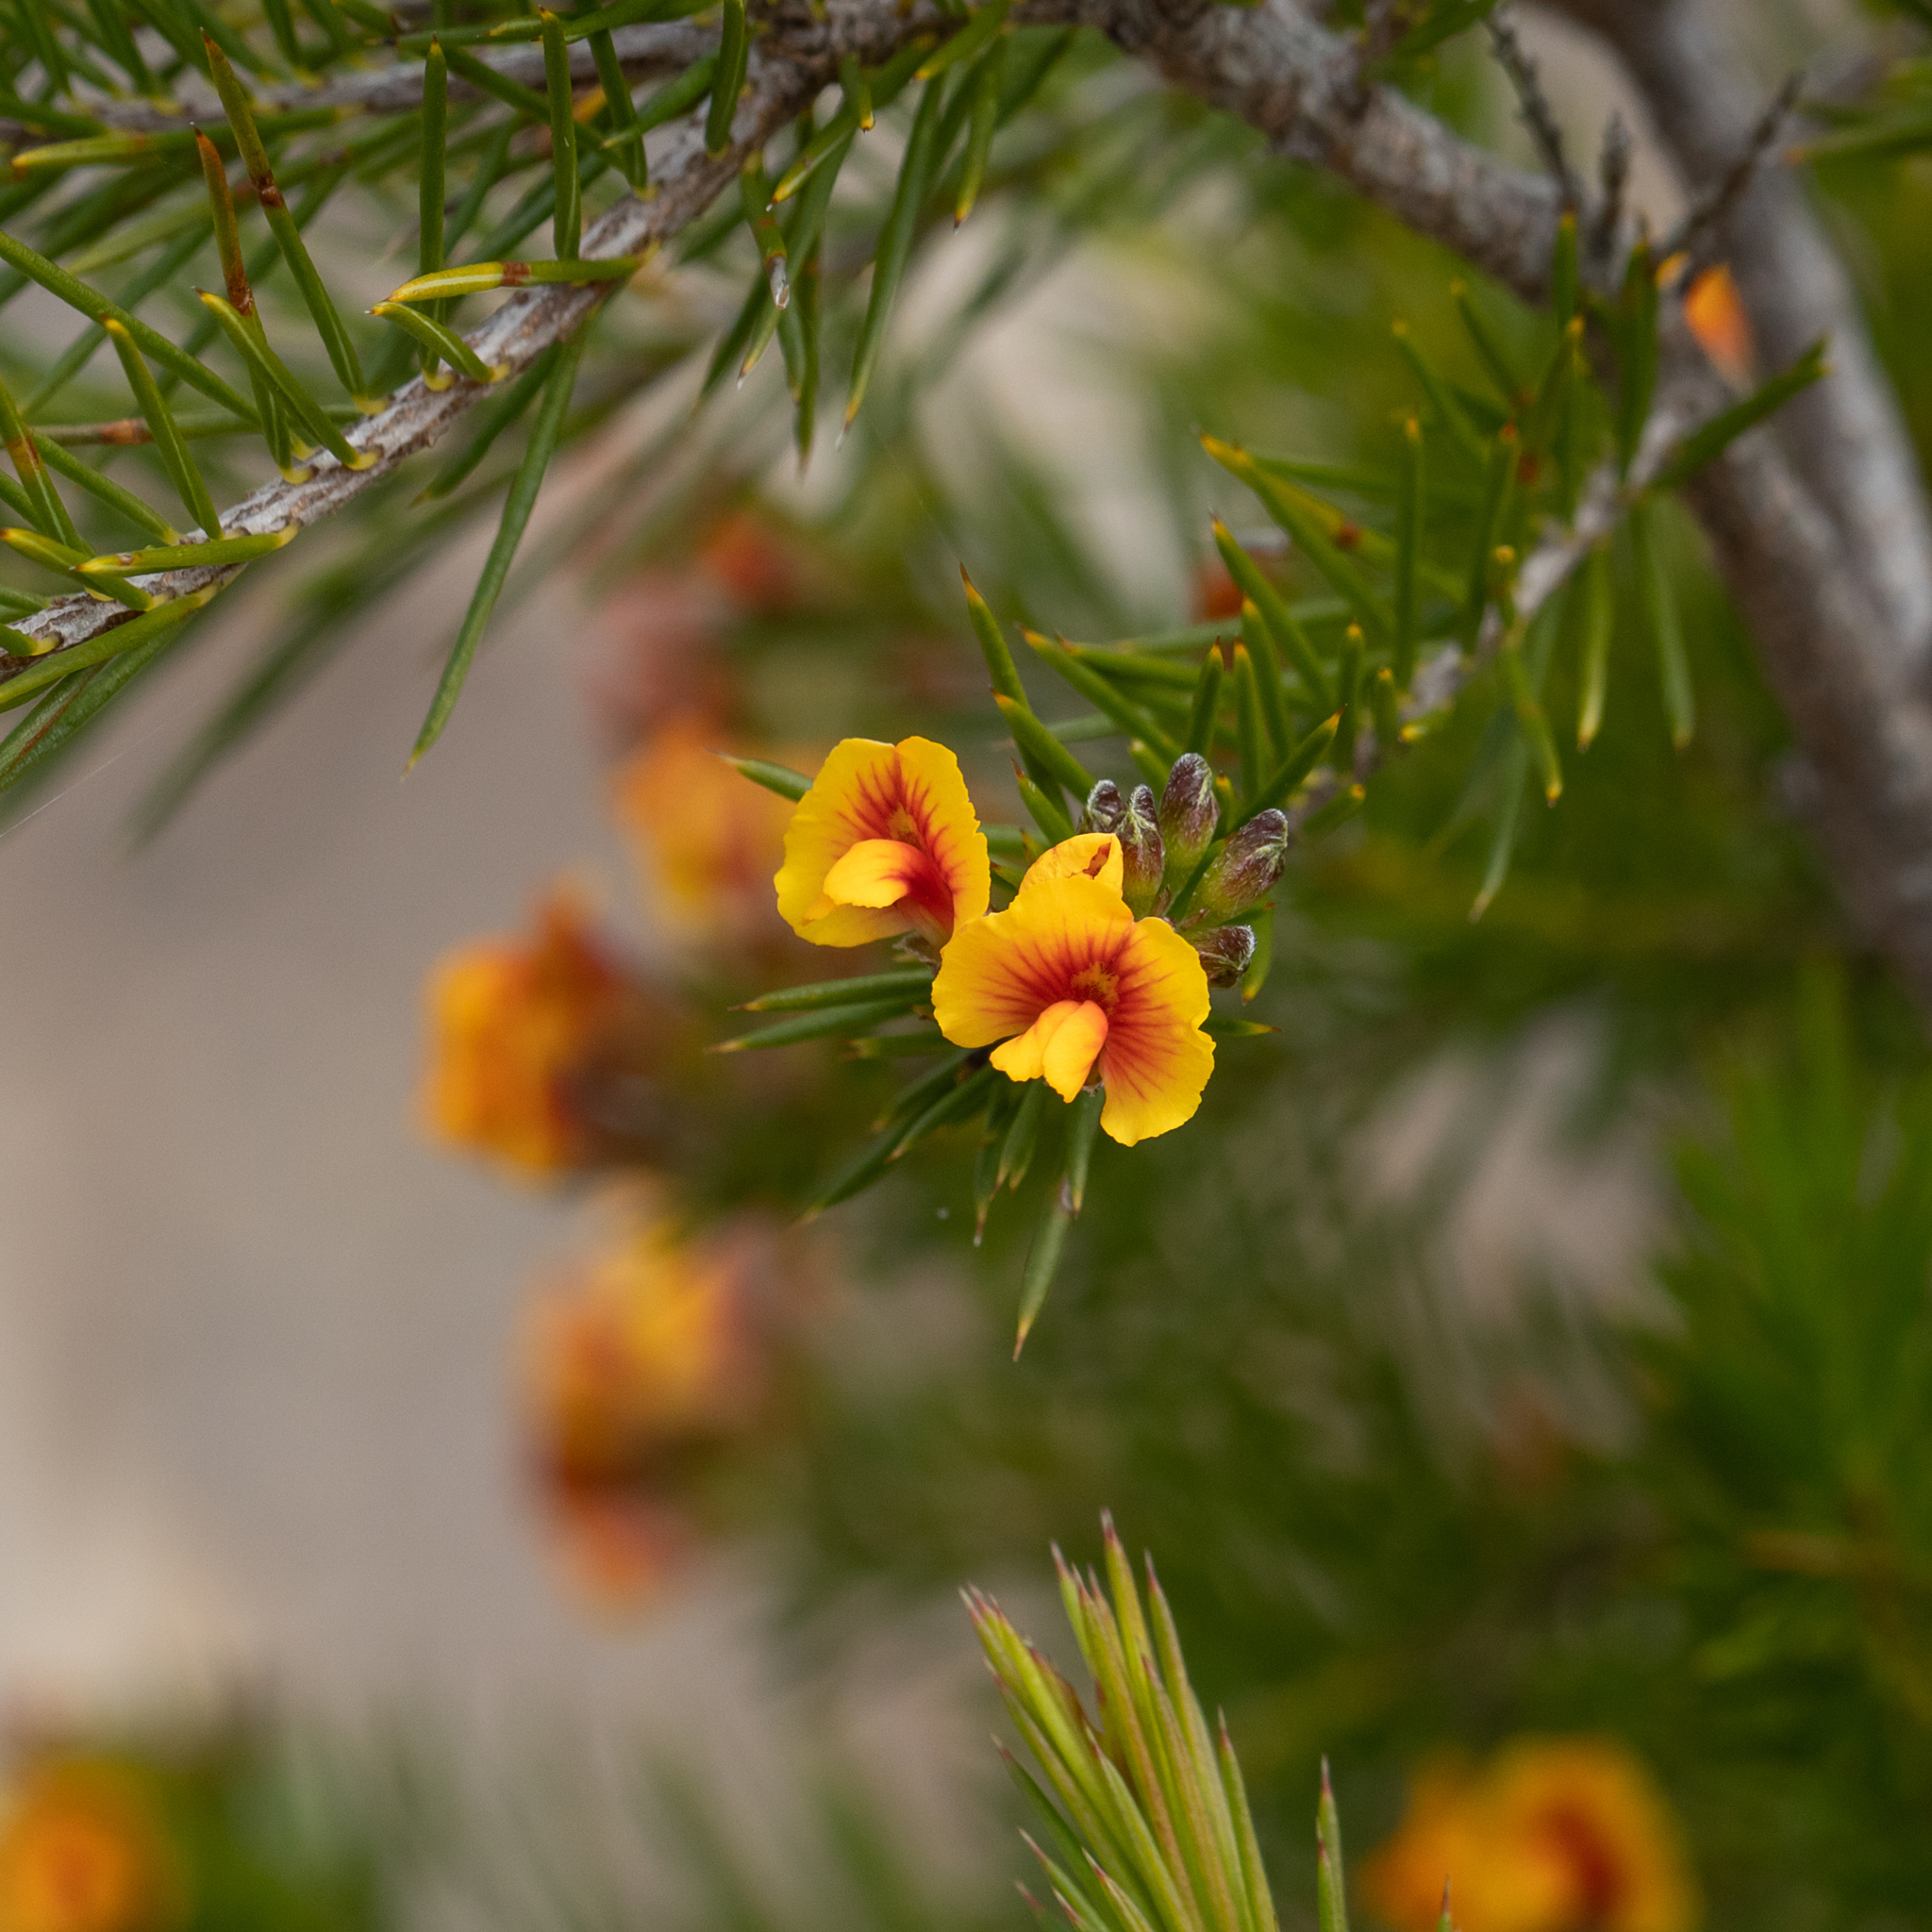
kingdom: Plantae
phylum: Tracheophyta
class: Magnoliopsida
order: Fabales
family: Fabaceae
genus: Dillwynia
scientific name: Dillwynia pungens
